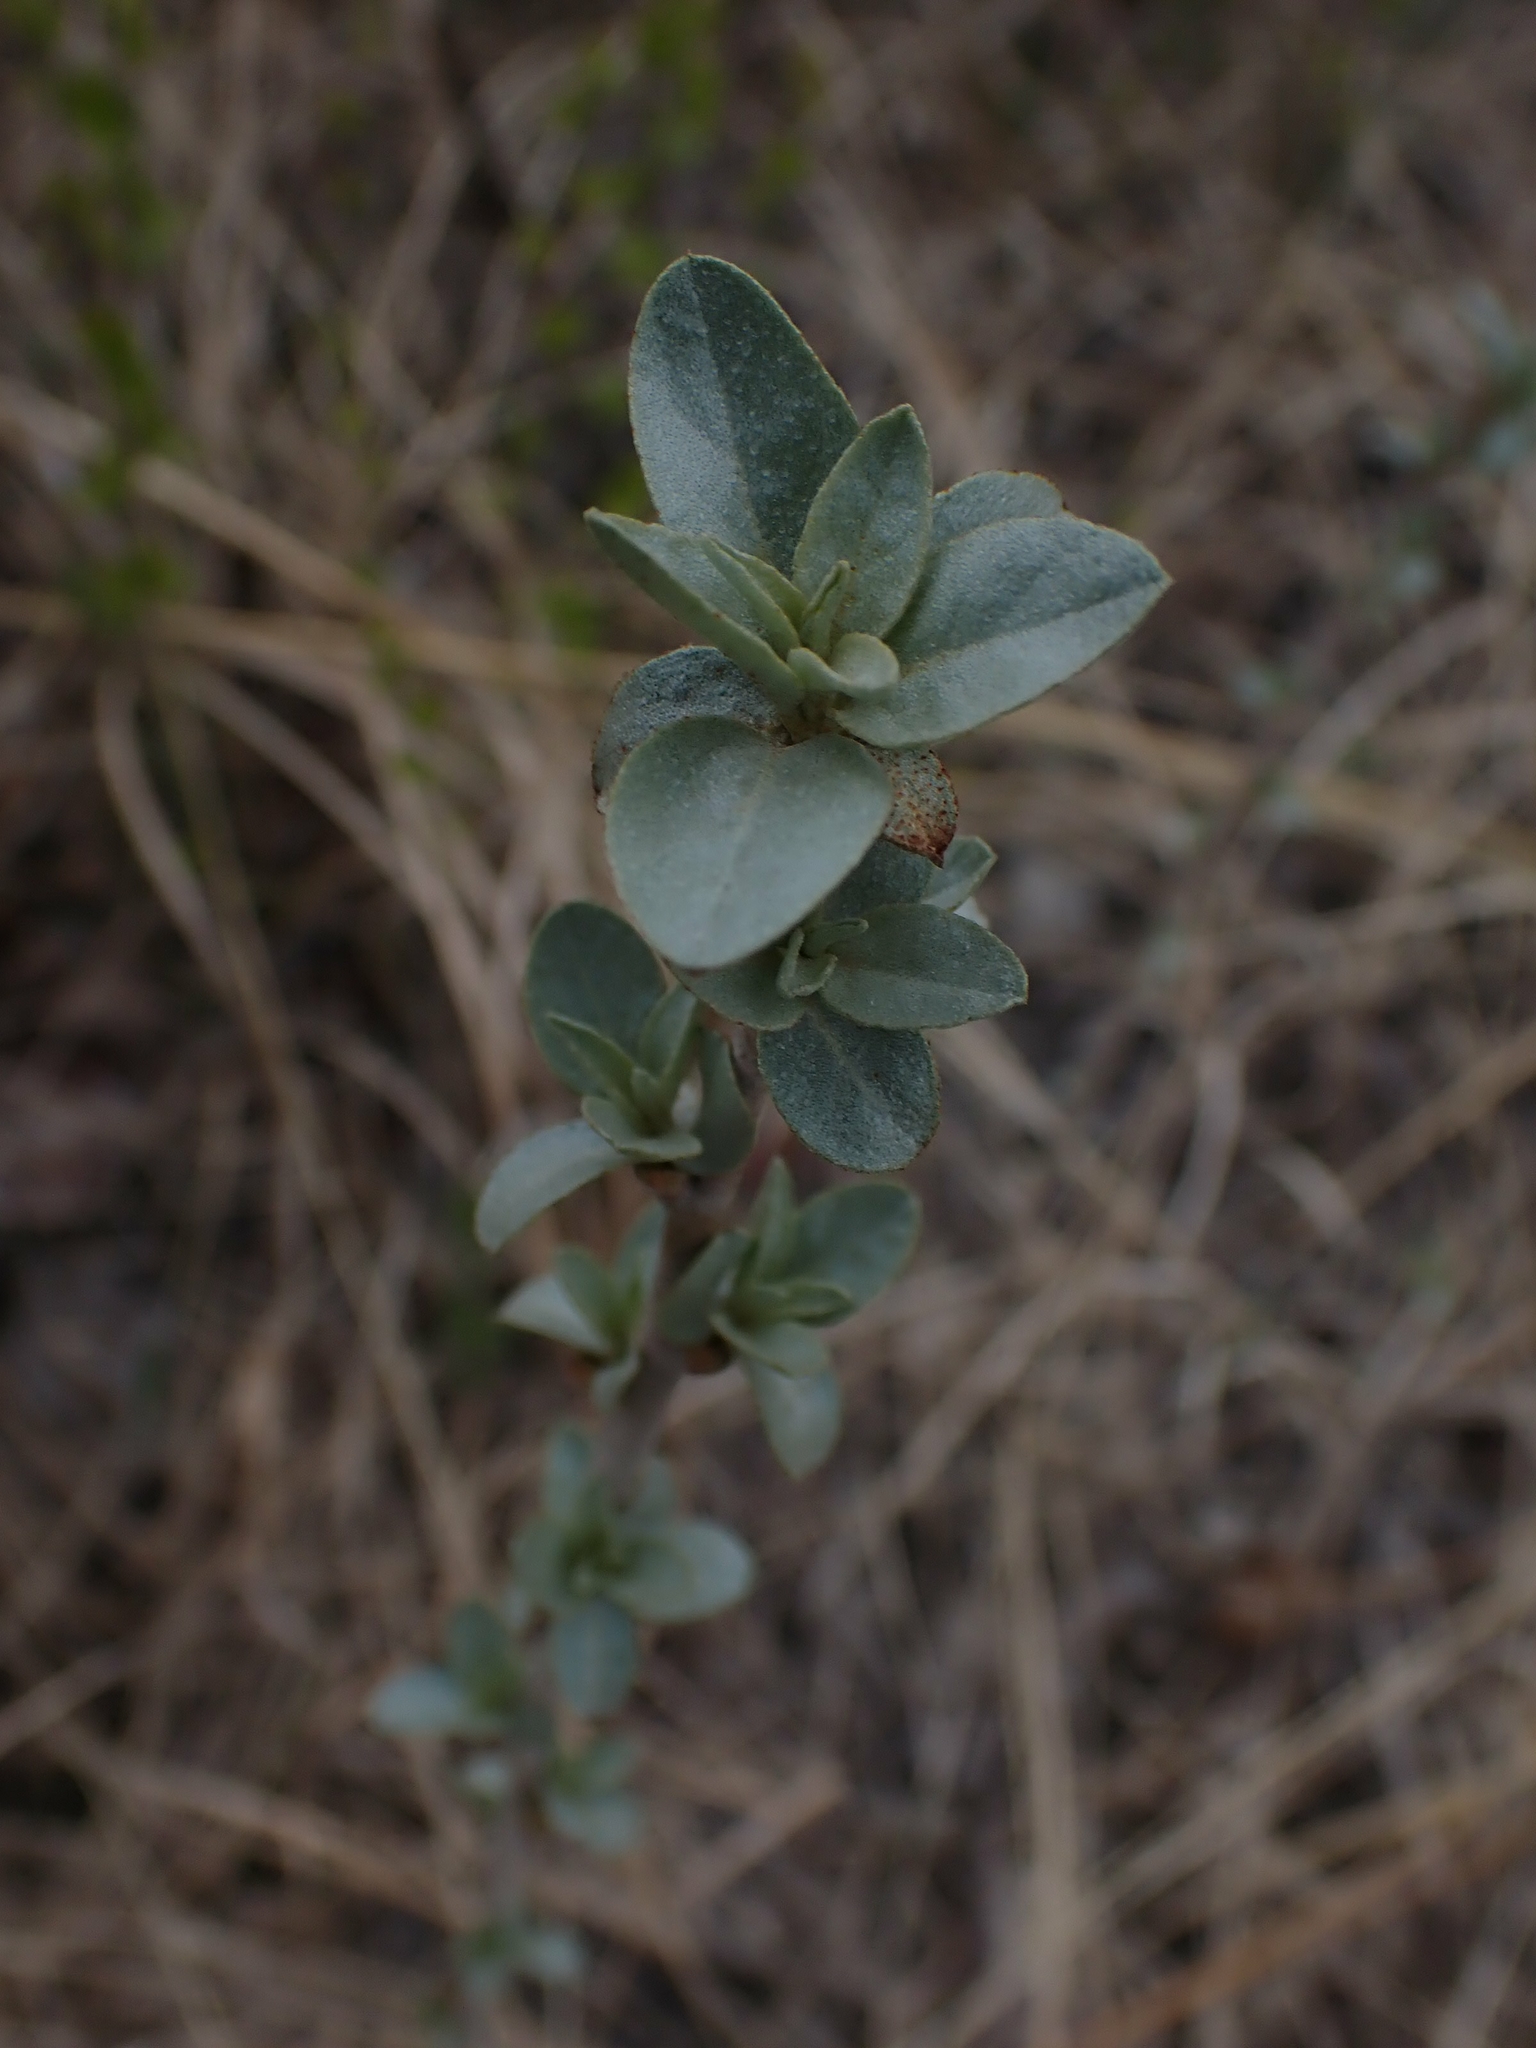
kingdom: Plantae
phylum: Tracheophyta
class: Magnoliopsida
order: Rosales
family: Elaeagnaceae
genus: Elaeagnus
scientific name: Elaeagnus commutata
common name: Silverberry
